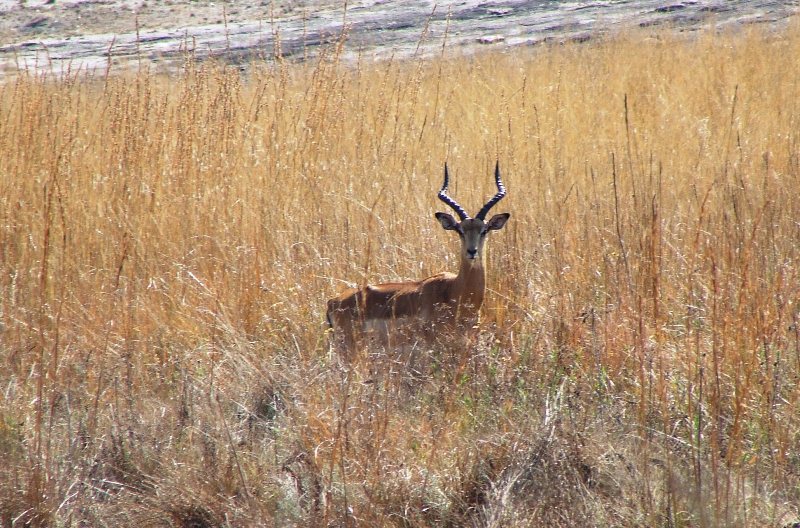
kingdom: Animalia
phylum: Chordata
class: Mammalia
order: Artiodactyla
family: Bovidae
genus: Aepyceros
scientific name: Aepyceros melampus
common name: Impala
